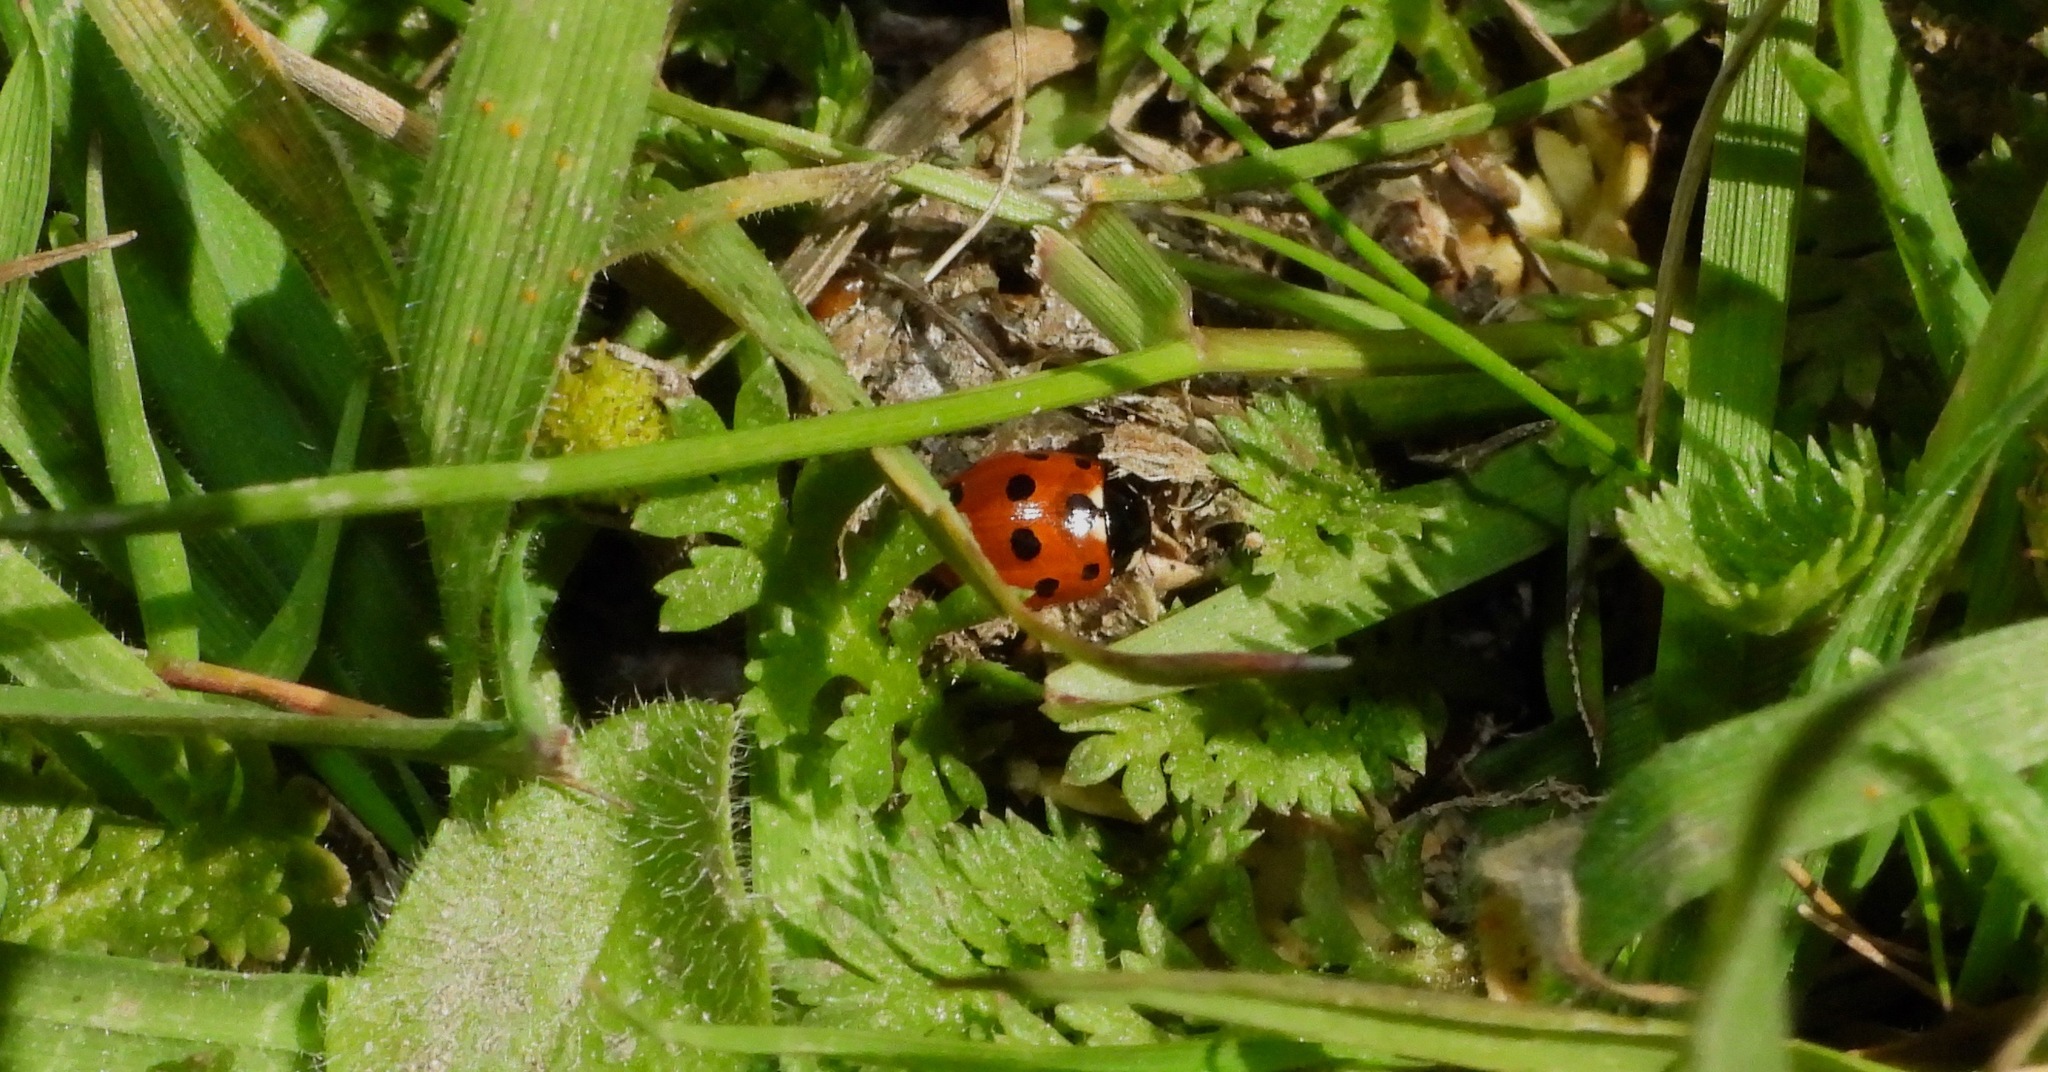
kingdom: Animalia
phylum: Arthropoda
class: Insecta
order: Coleoptera
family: Coccinellidae
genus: Coccinella
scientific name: Coccinella undecimpunctata
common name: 11-spot ladybird
